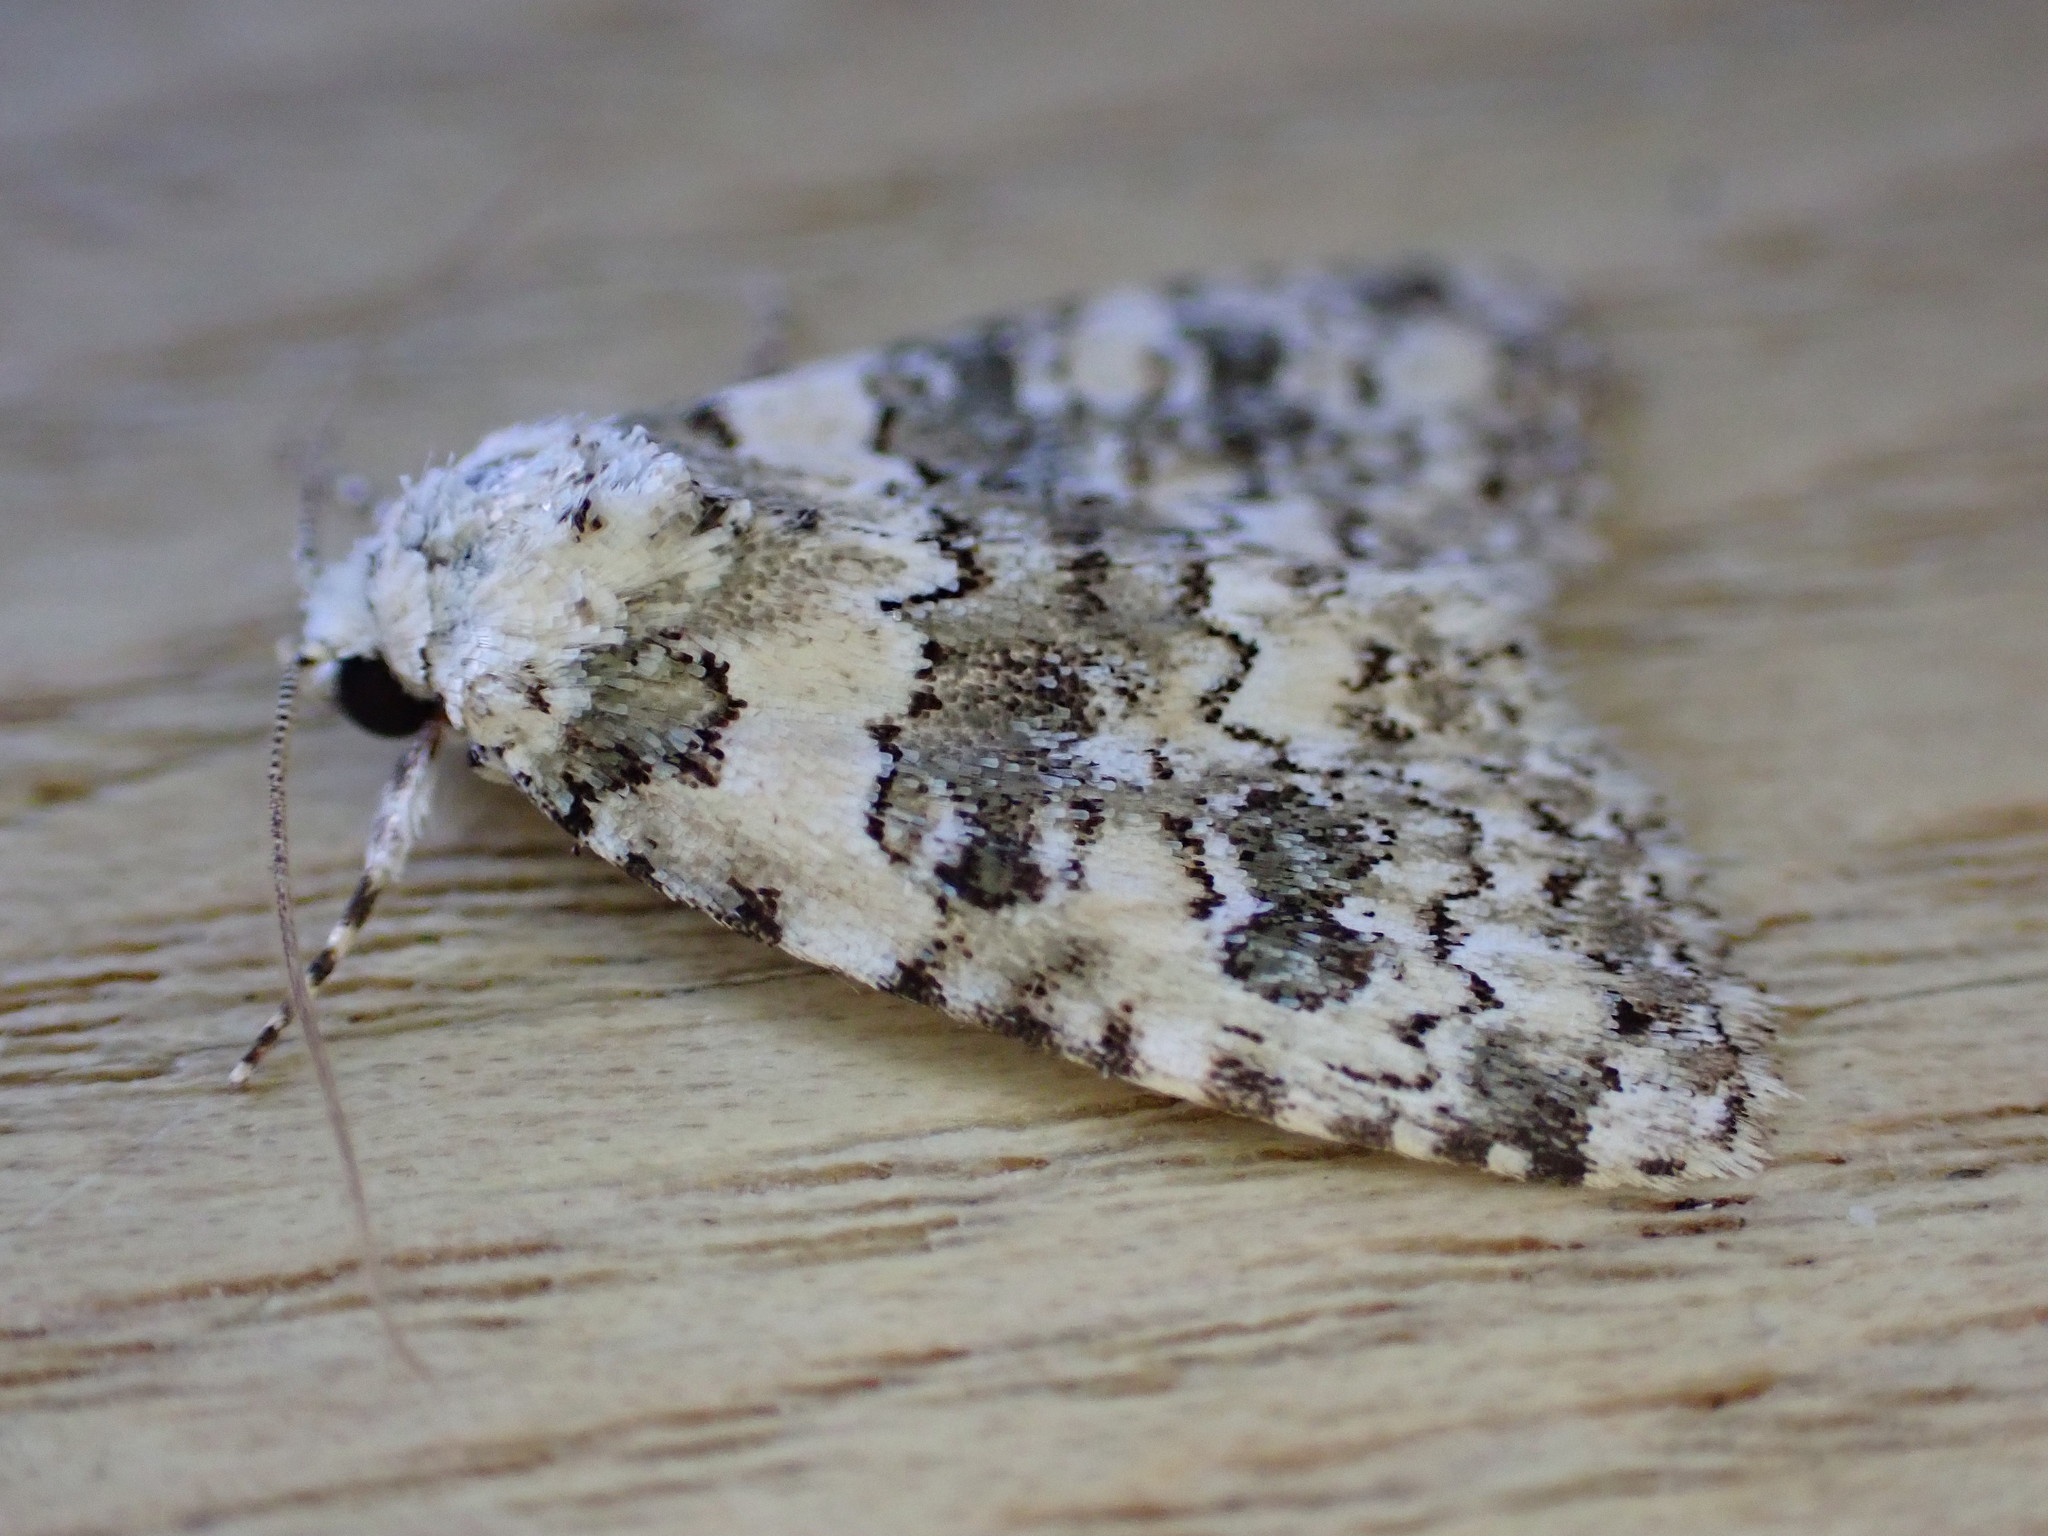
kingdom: Animalia
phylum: Arthropoda
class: Insecta
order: Lepidoptera
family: Noctuidae
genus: Bryophila
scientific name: Bryophila domestica
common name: Marbled beauty
